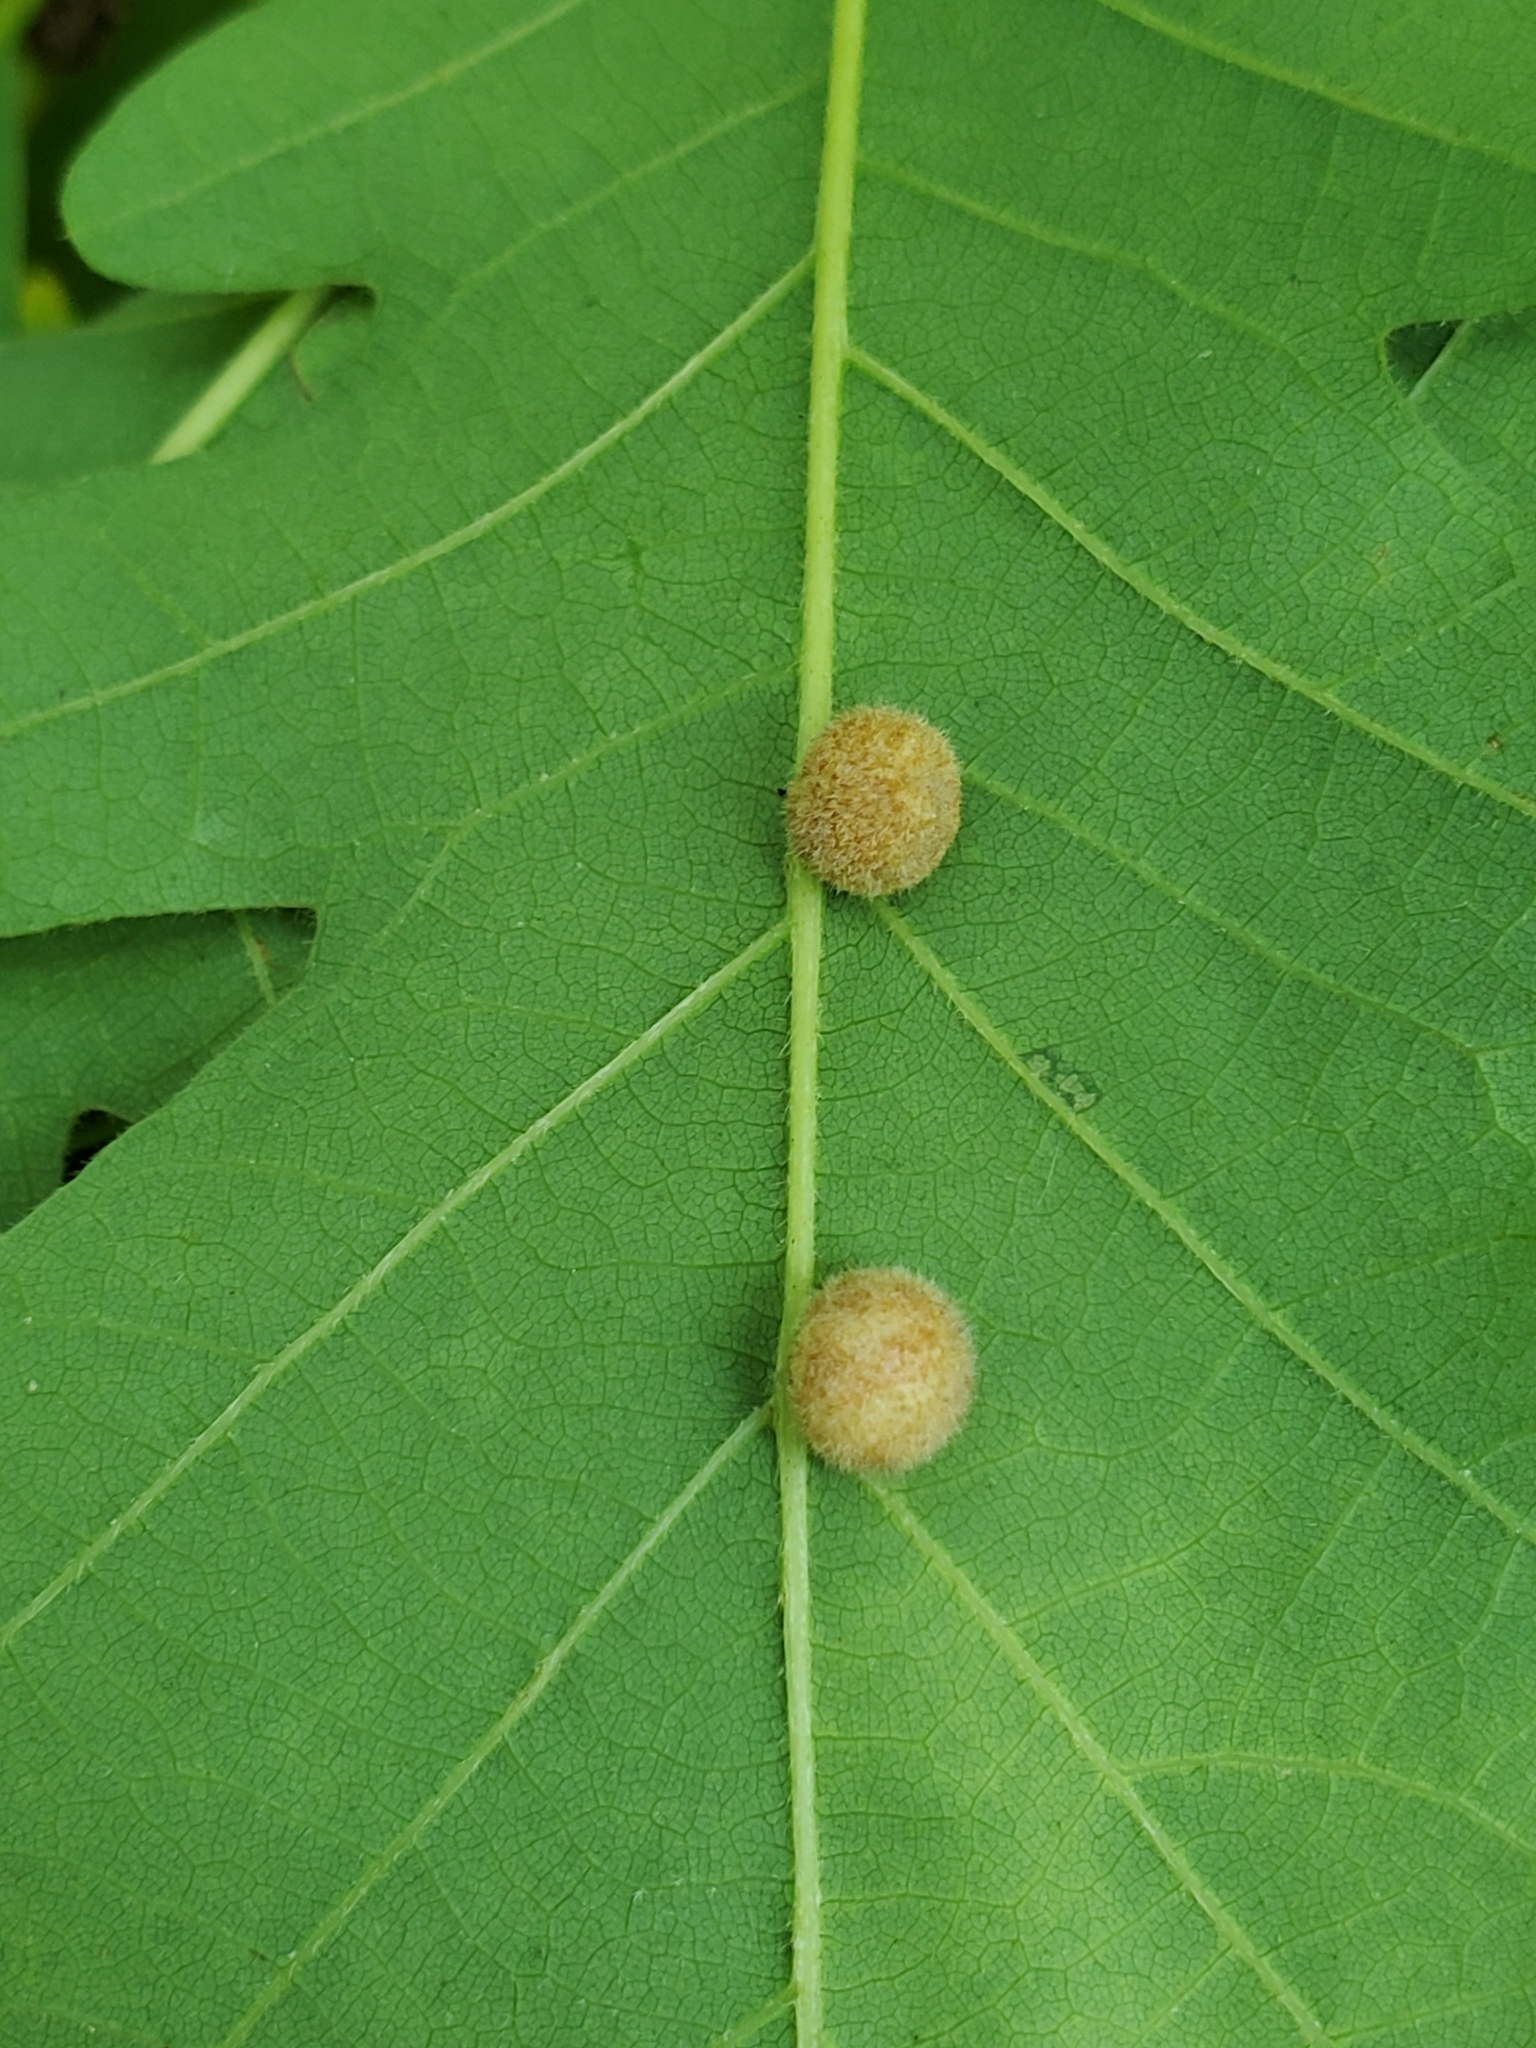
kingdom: Animalia
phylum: Arthropoda
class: Insecta
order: Hymenoptera
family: Cynipidae
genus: Philonix
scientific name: Philonix fulvicollis
